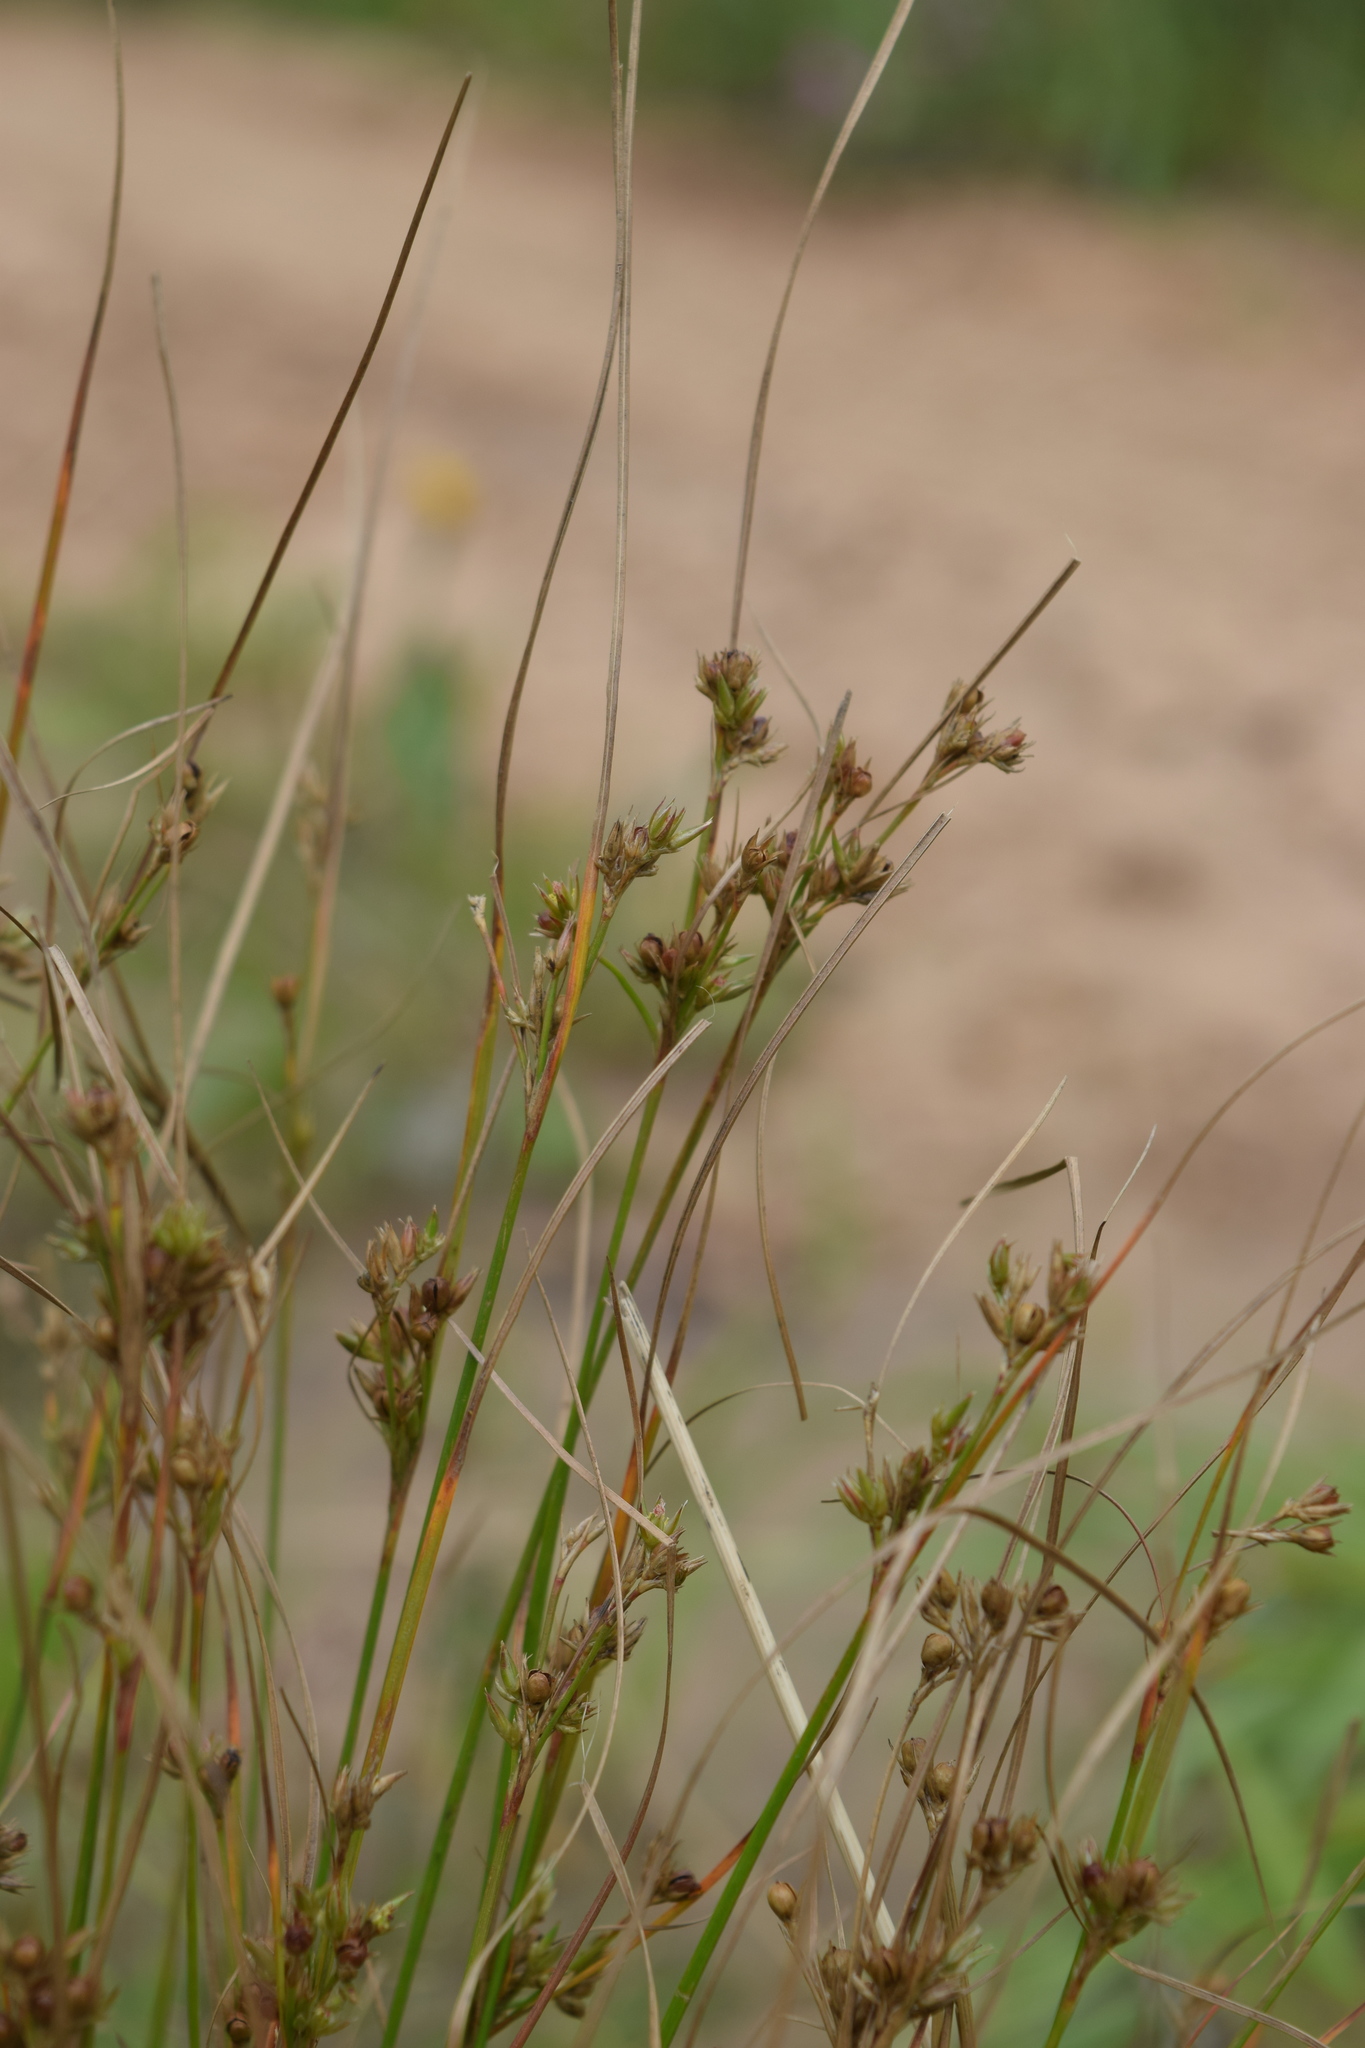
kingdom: Plantae
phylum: Tracheophyta
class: Liliopsida
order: Poales
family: Juncaceae
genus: Juncus
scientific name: Juncus tenuis
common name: Slender rush
